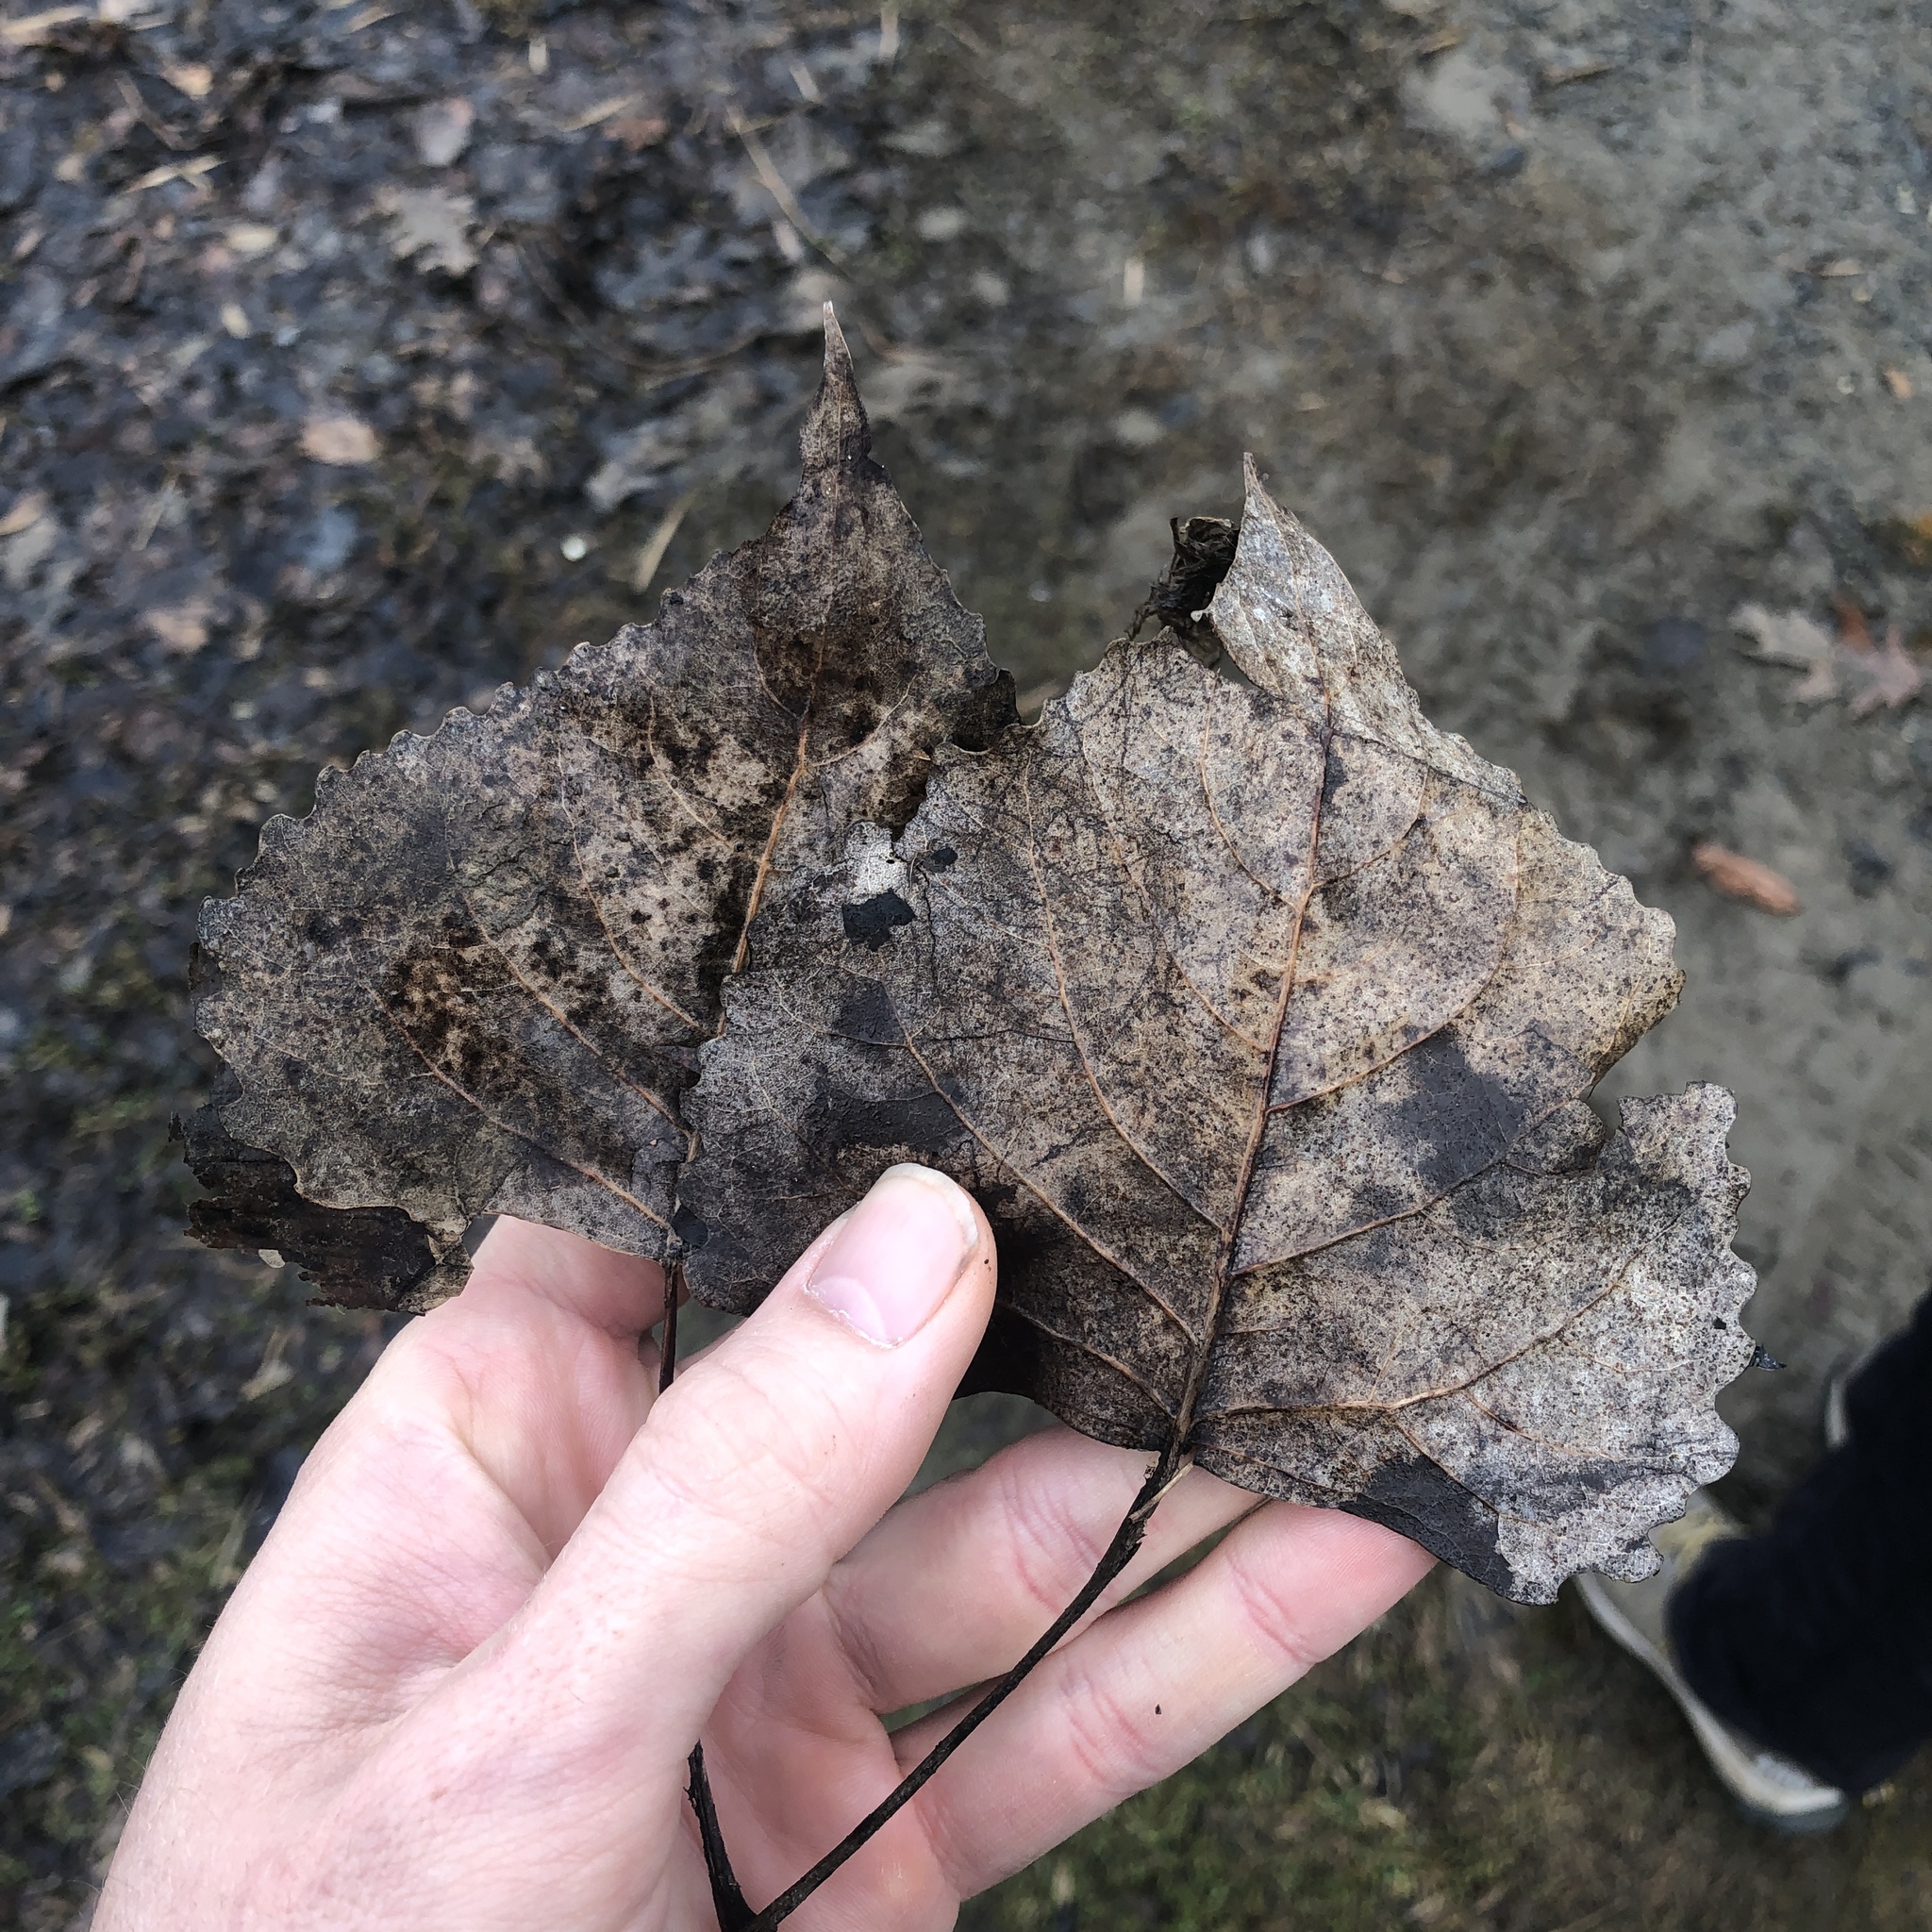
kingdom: Plantae
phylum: Tracheophyta
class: Magnoliopsida
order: Malpighiales
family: Salicaceae
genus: Populus
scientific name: Populus deltoides
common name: Eastern cottonwood
